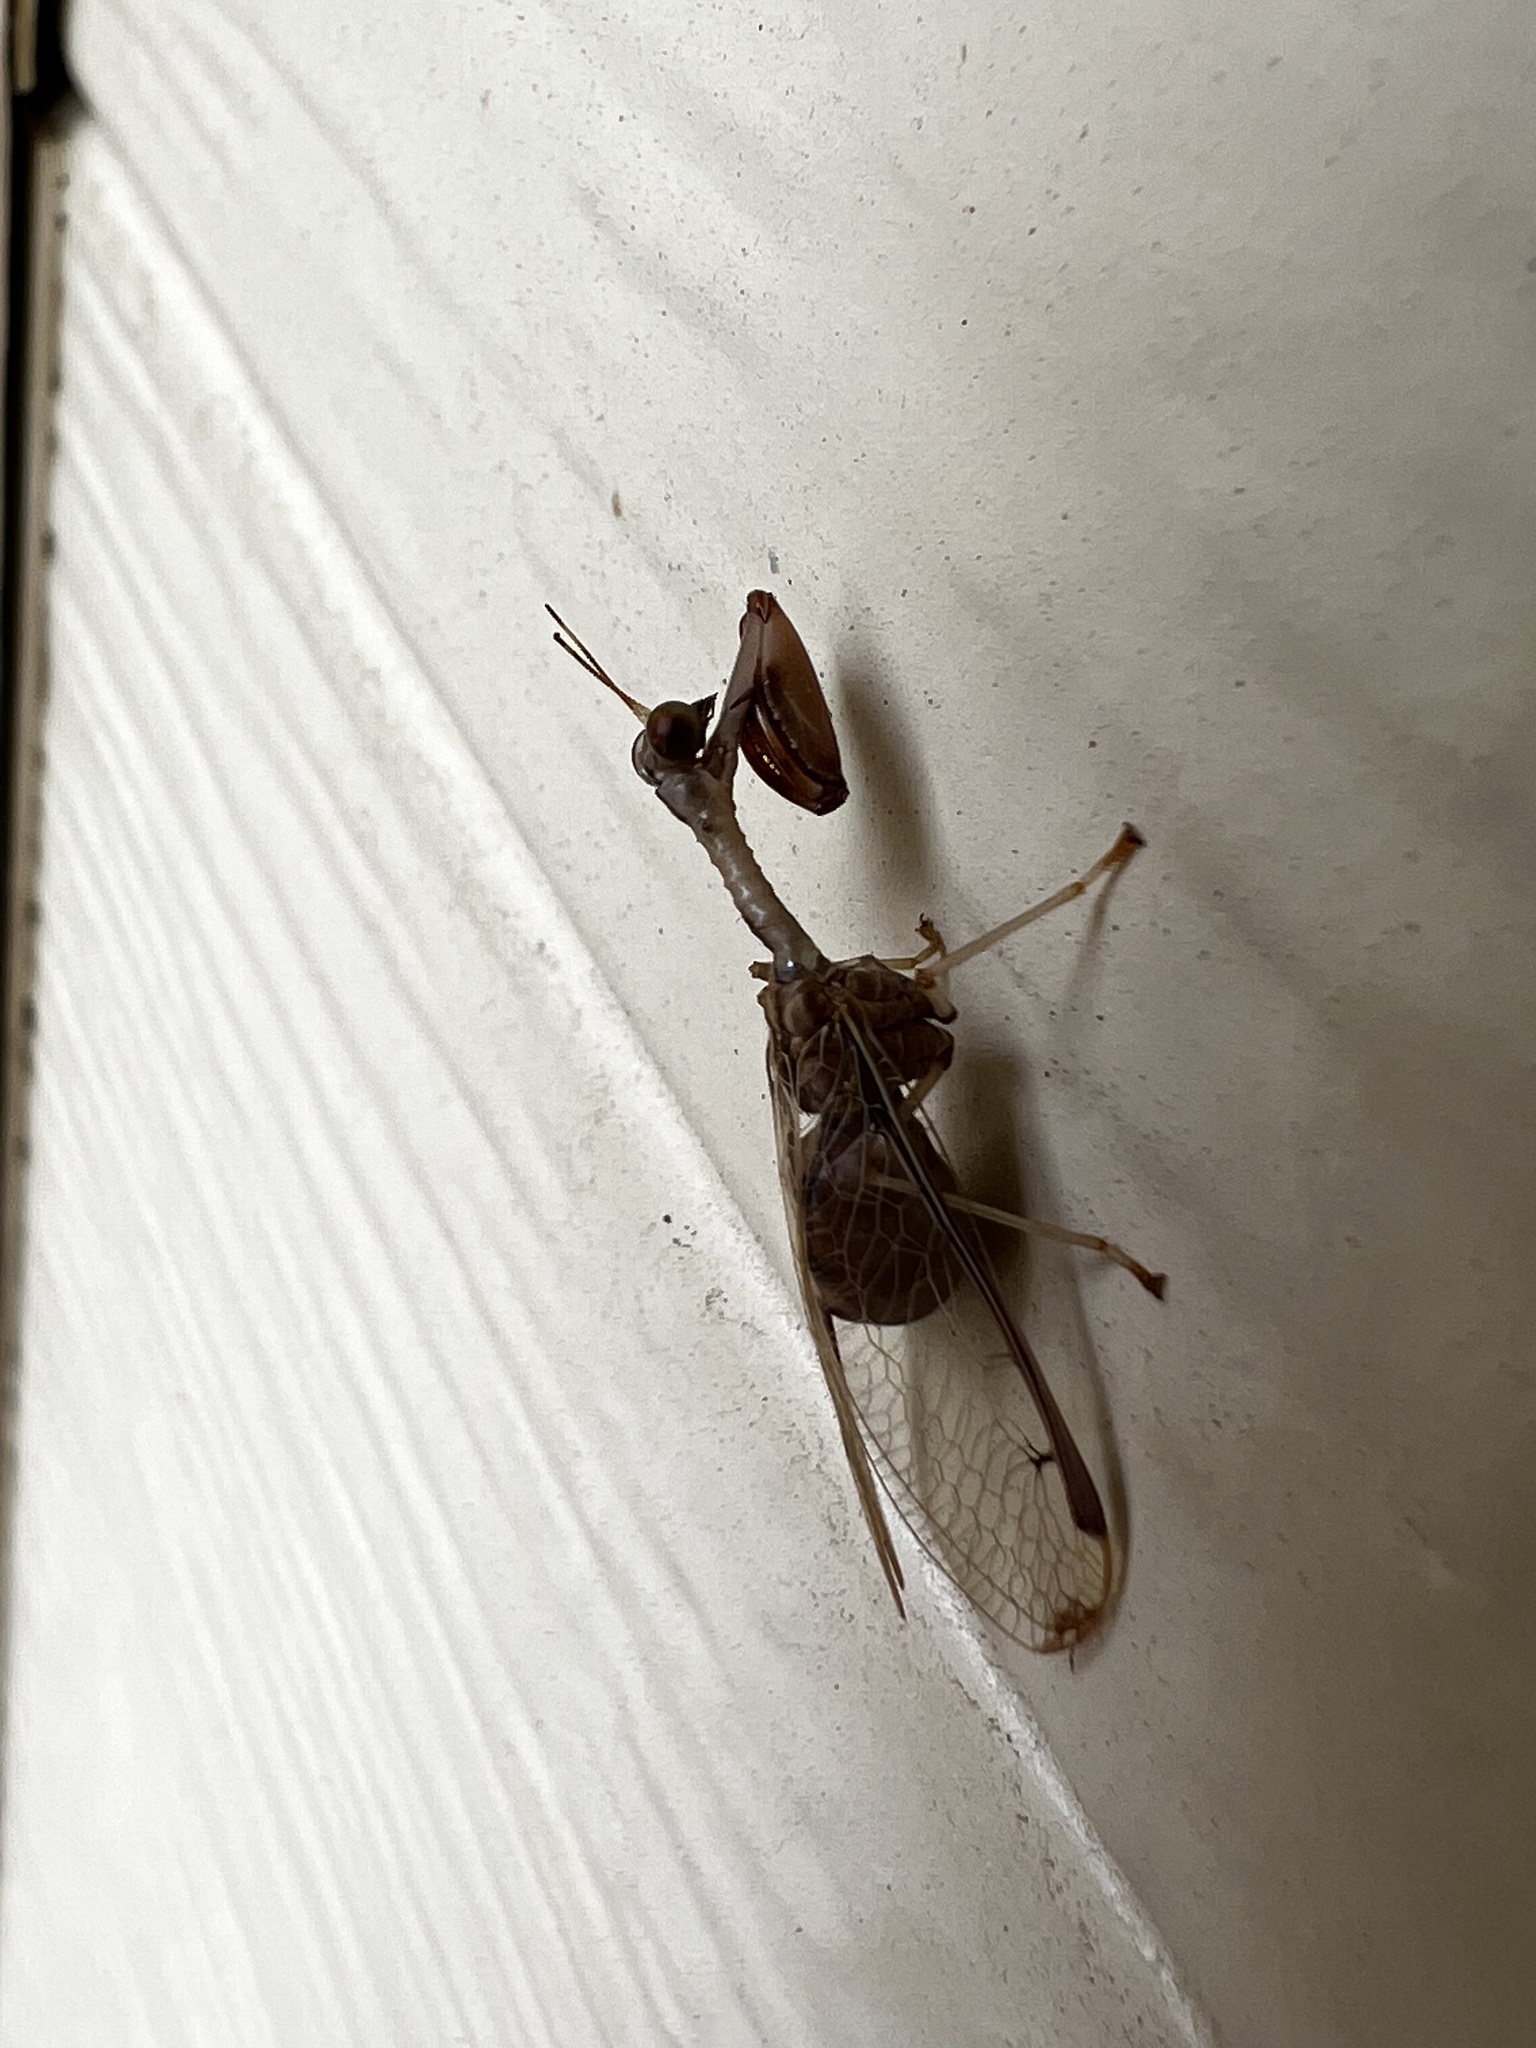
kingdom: Animalia
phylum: Arthropoda
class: Insecta
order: Neuroptera
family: Mantispidae
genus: Dicromantispa
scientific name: Dicromantispa interrupta
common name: Four-spotted mantidfly
